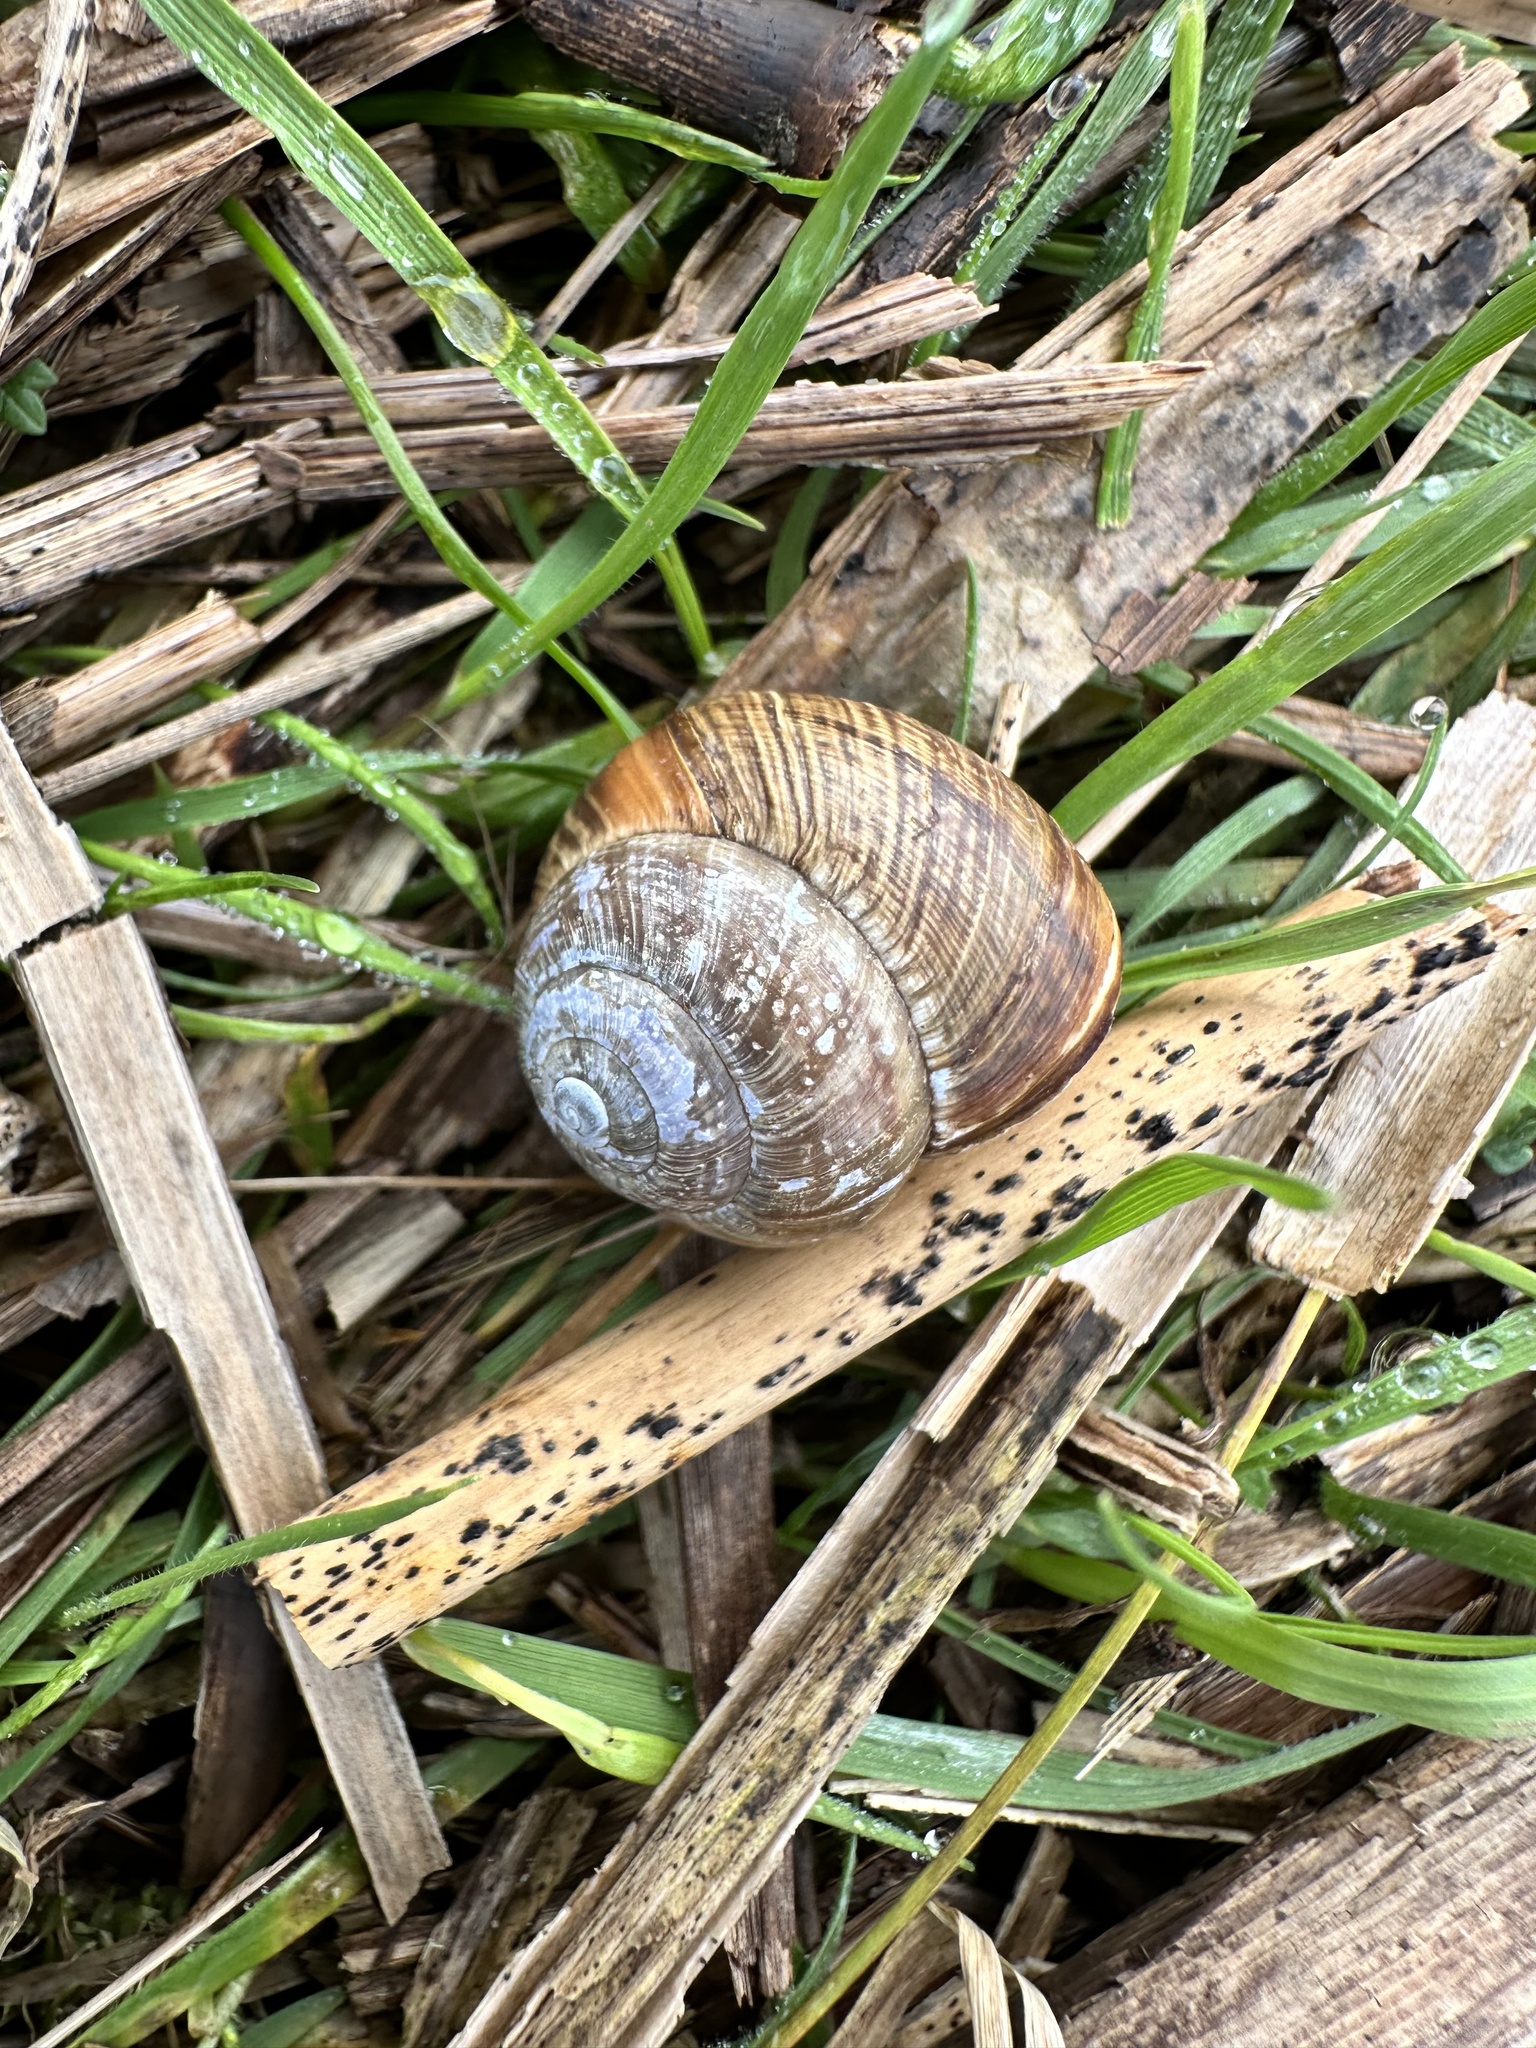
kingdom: Animalia
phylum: Mollusca
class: Gastropoda
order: Stylommatophora
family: Helicidae
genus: Arianta
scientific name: Arianta arbustorum
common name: Copse snail
